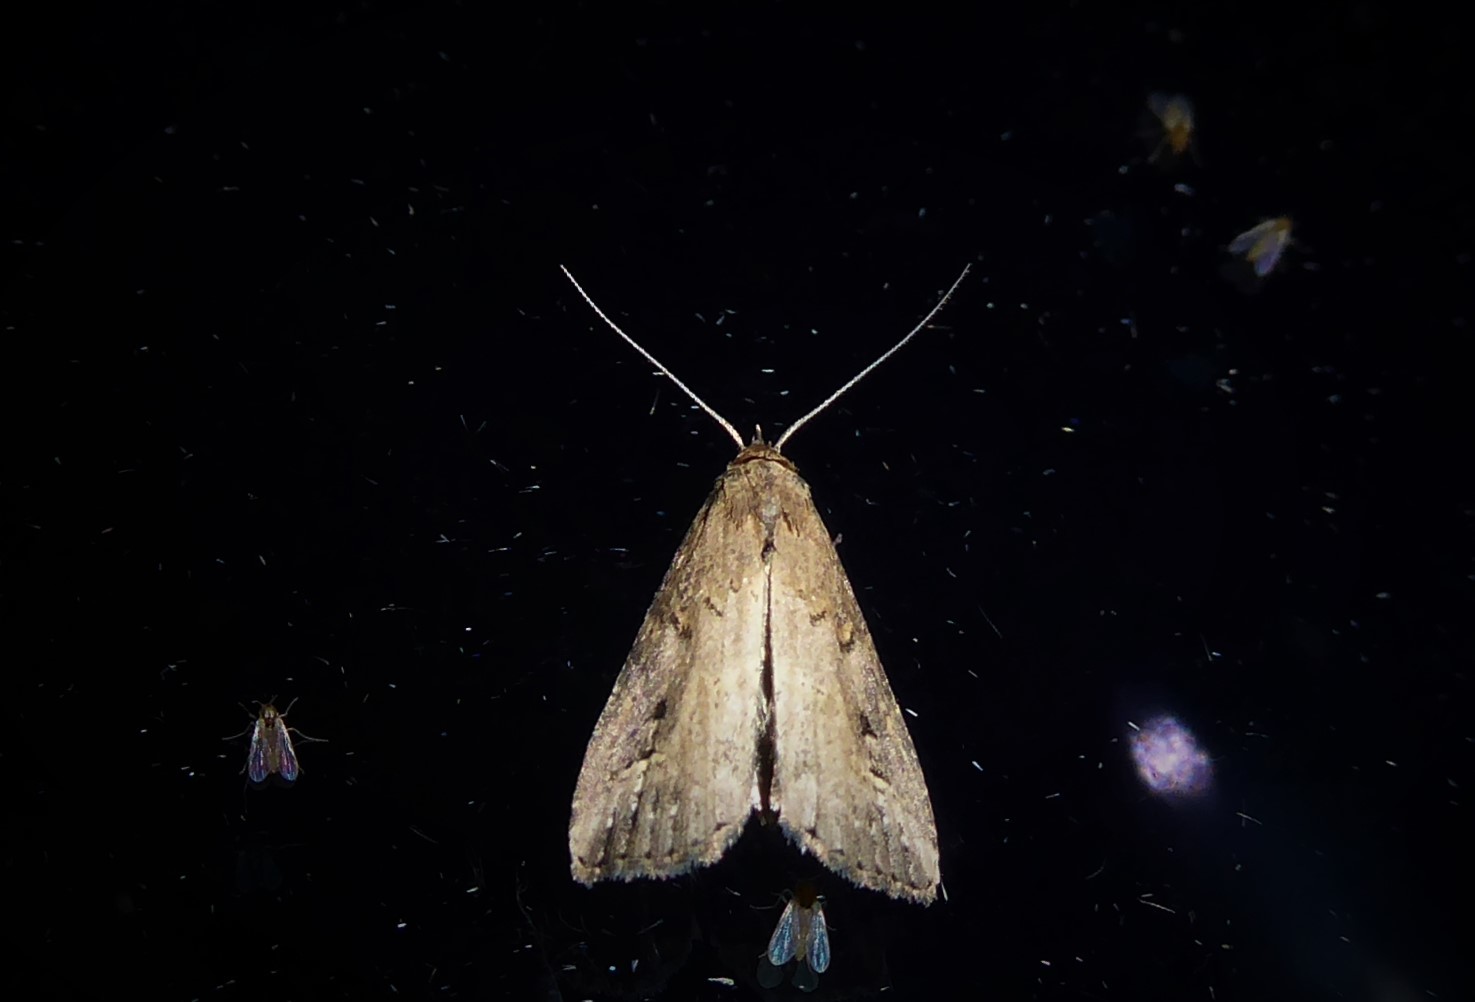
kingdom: Animalia
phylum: Arthropoda
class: Insecta
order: Lepidoptera
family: Erebidae
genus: Schrankia
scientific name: Schrankia costaestrigalis
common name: Pinion-streaked snout
